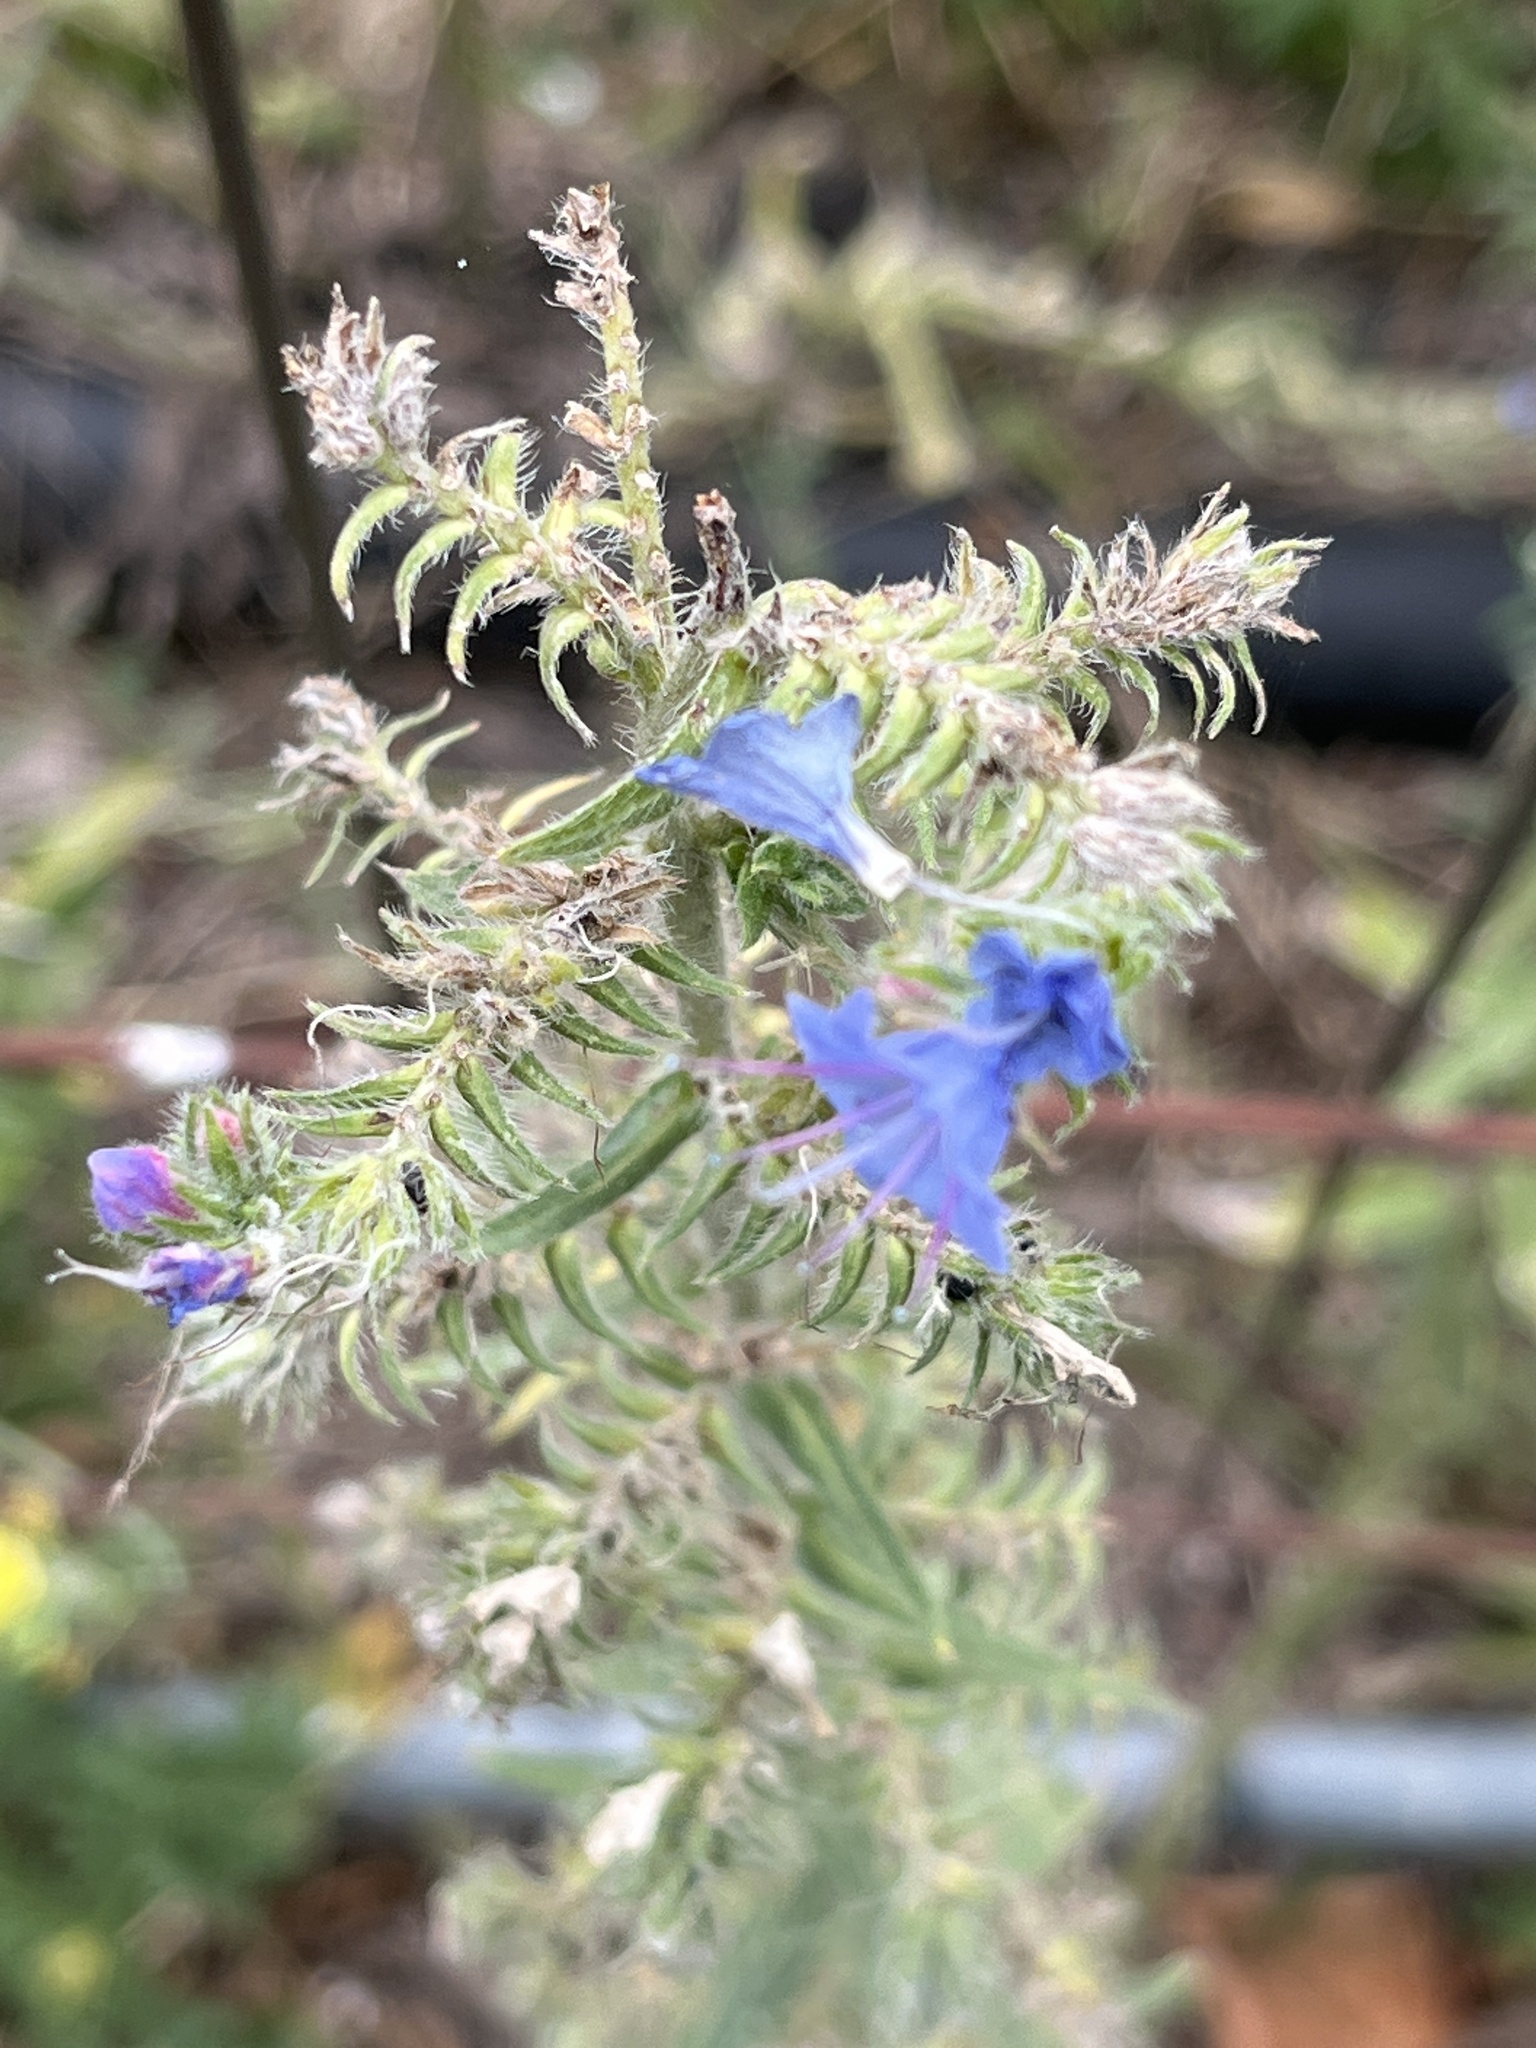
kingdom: Plantae
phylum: Tracheophyta
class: Magnoliopsida
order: Boraginales
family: Boraginaceae
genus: Echium
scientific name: Echium vulgare
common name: Common viper's bugloss
